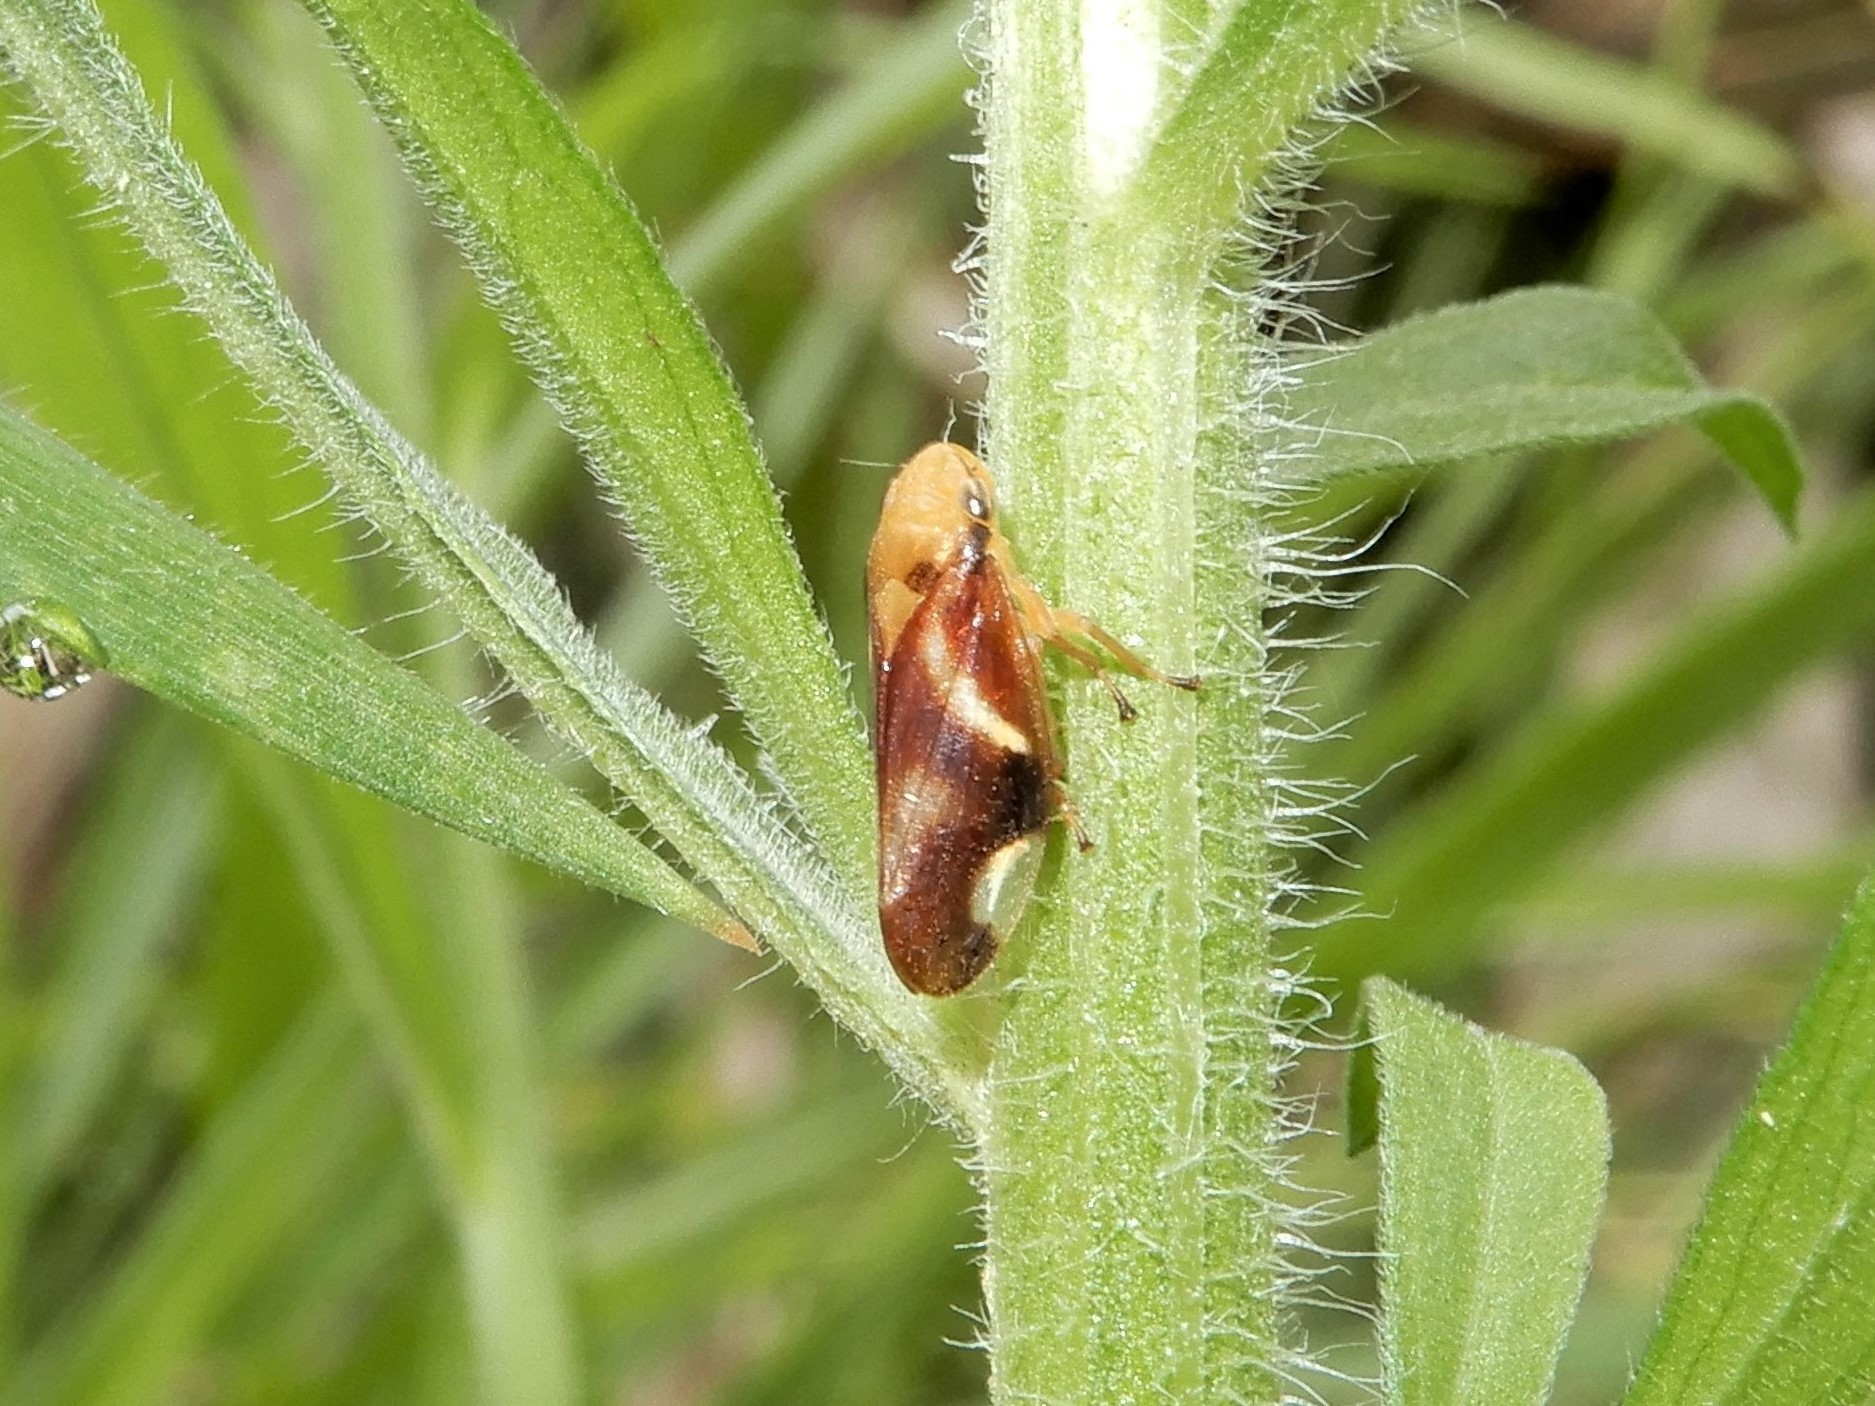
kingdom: Animalia
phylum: Arthropoda
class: Insecta
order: Hemiptera
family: Aphrophoridae
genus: Carystoterpa
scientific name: Carystoterpa fingens
